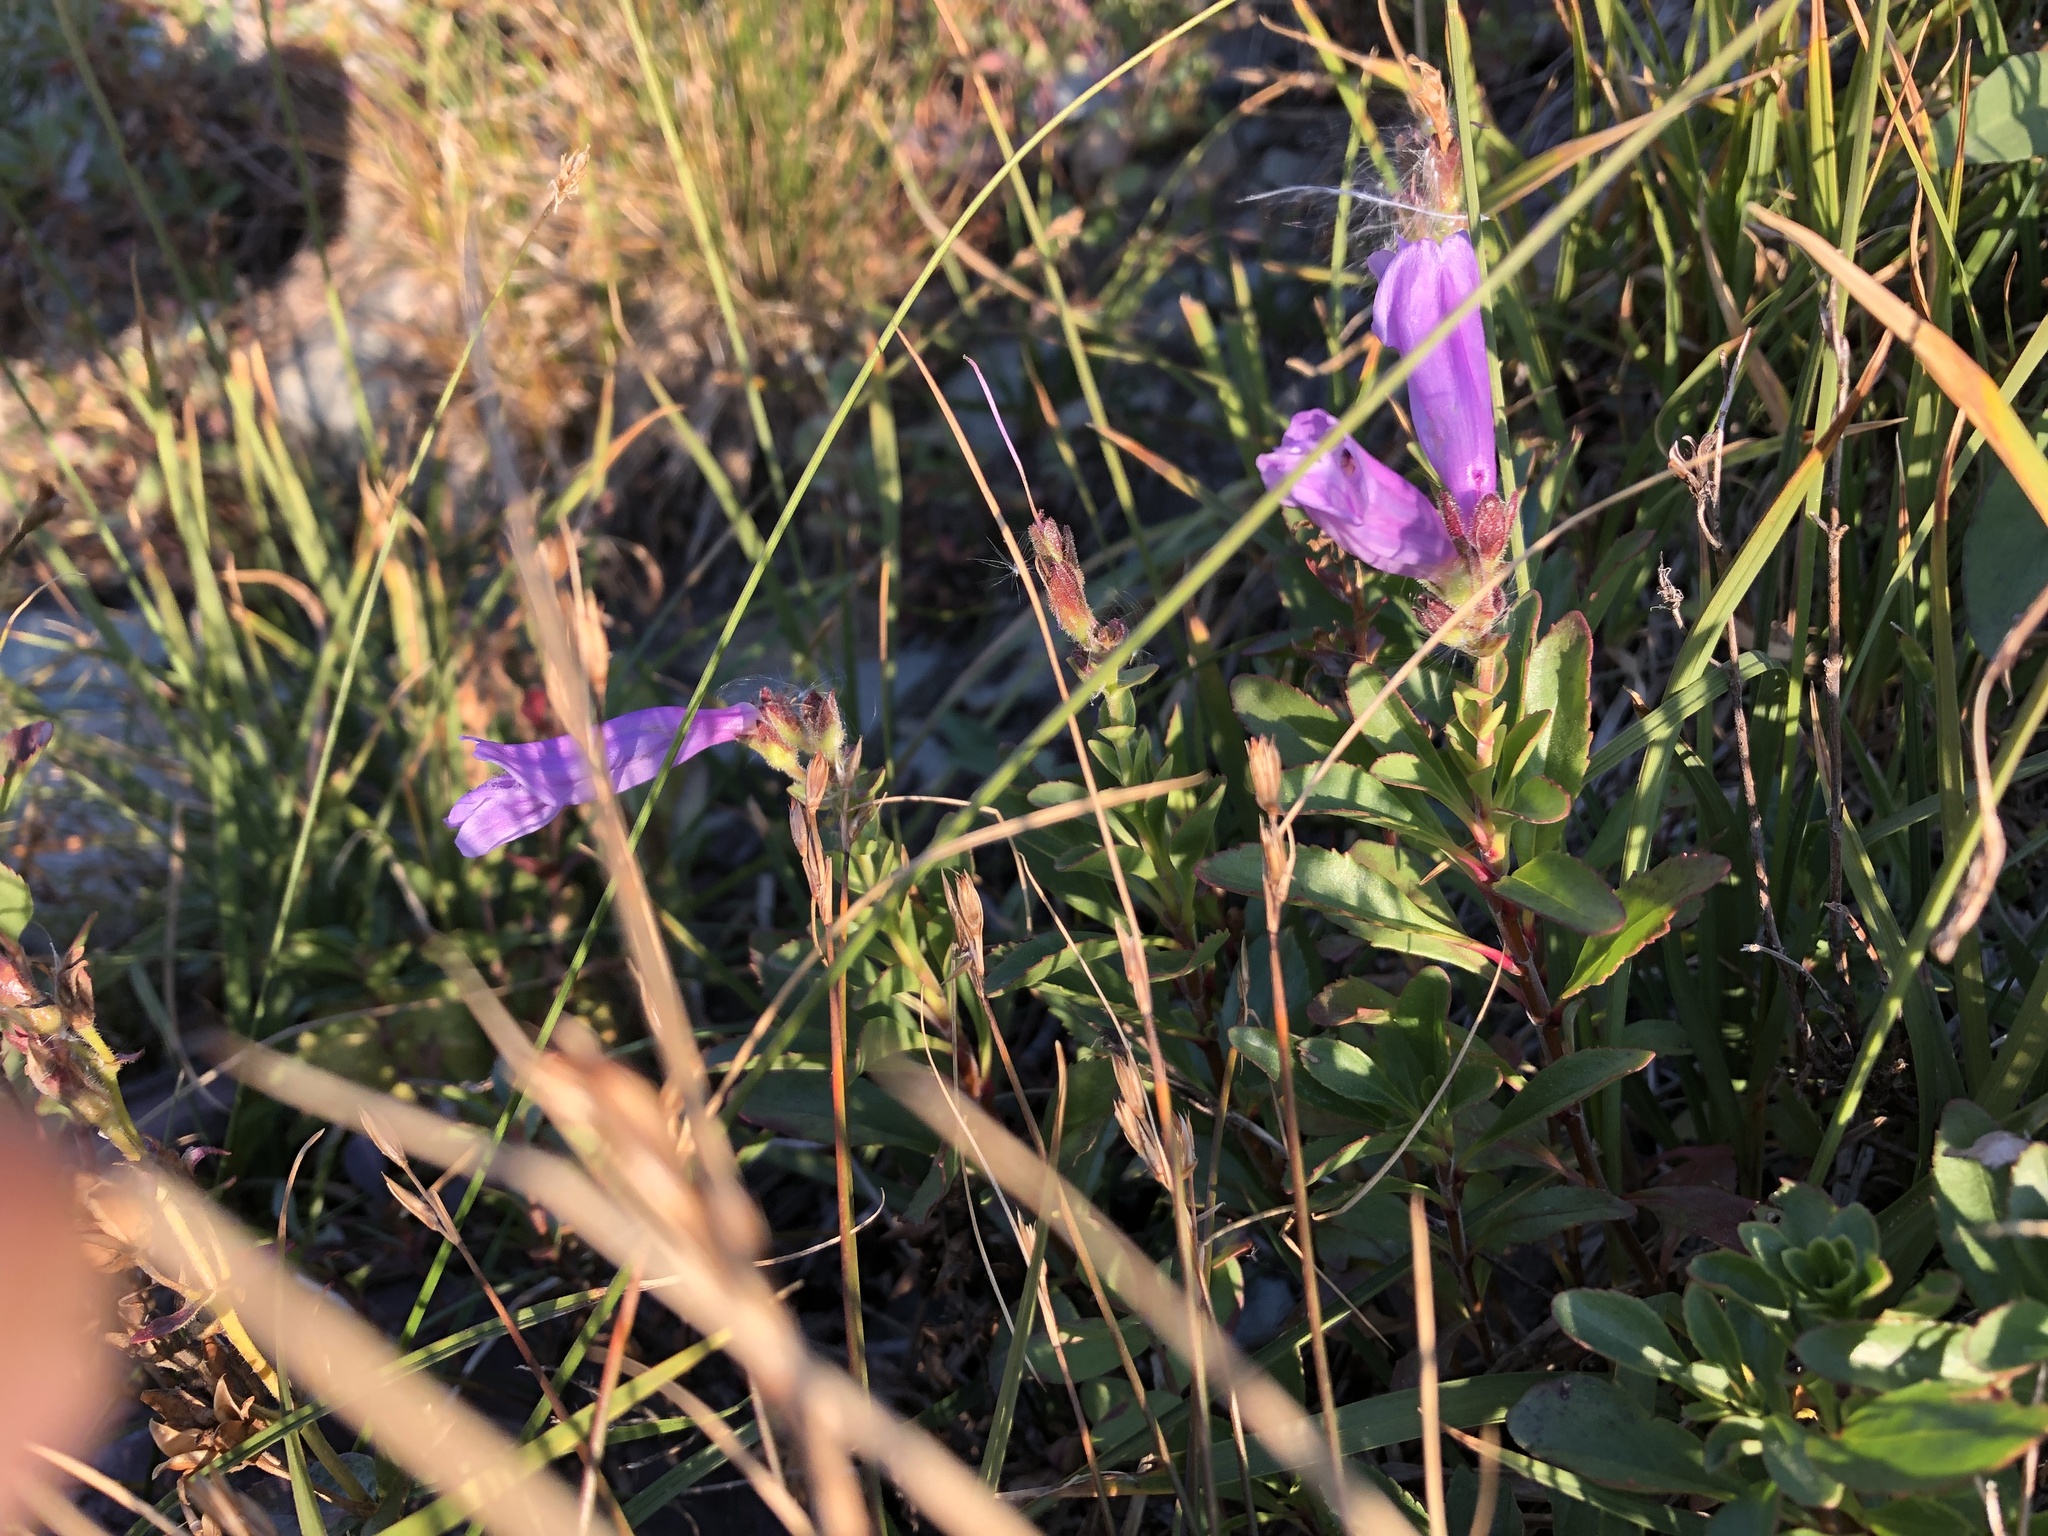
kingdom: Plantae
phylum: Tracheophyta
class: Magnoliopsida
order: Lamiales
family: Plantaginaceae
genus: Penstemon
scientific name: Penstemon ellipticus
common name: Alpine beardtongue
